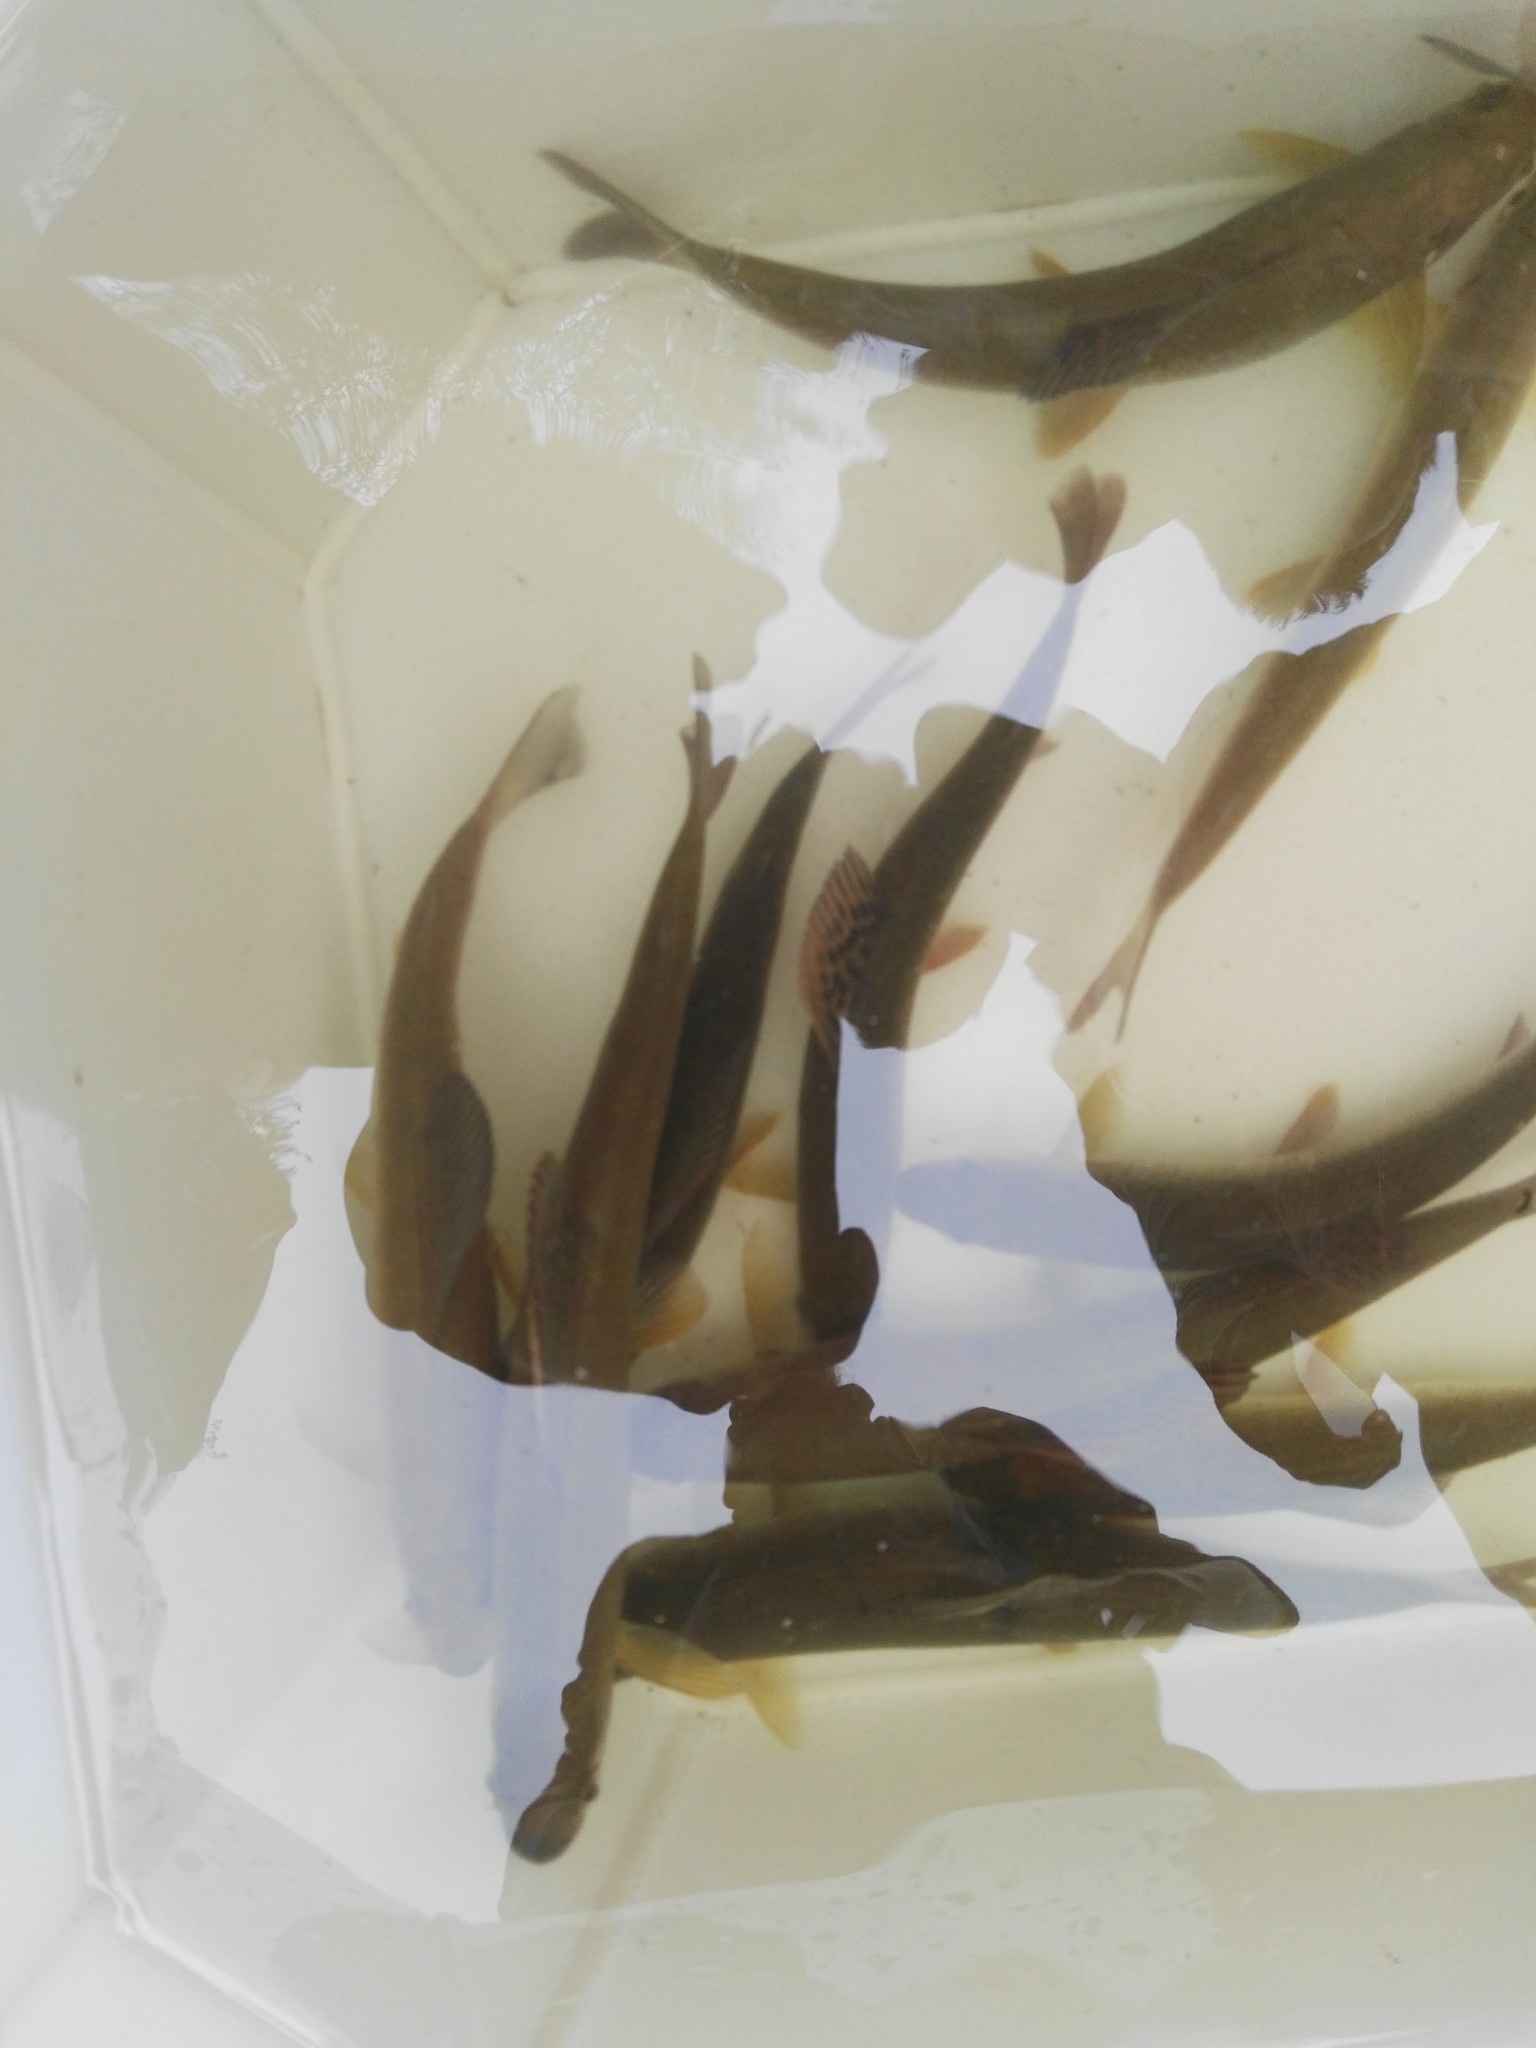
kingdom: Animalia
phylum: Chordata
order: Salmoniformes
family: Salmonidae
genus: Thymallus
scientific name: Thymallus thymallus
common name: Grayling
